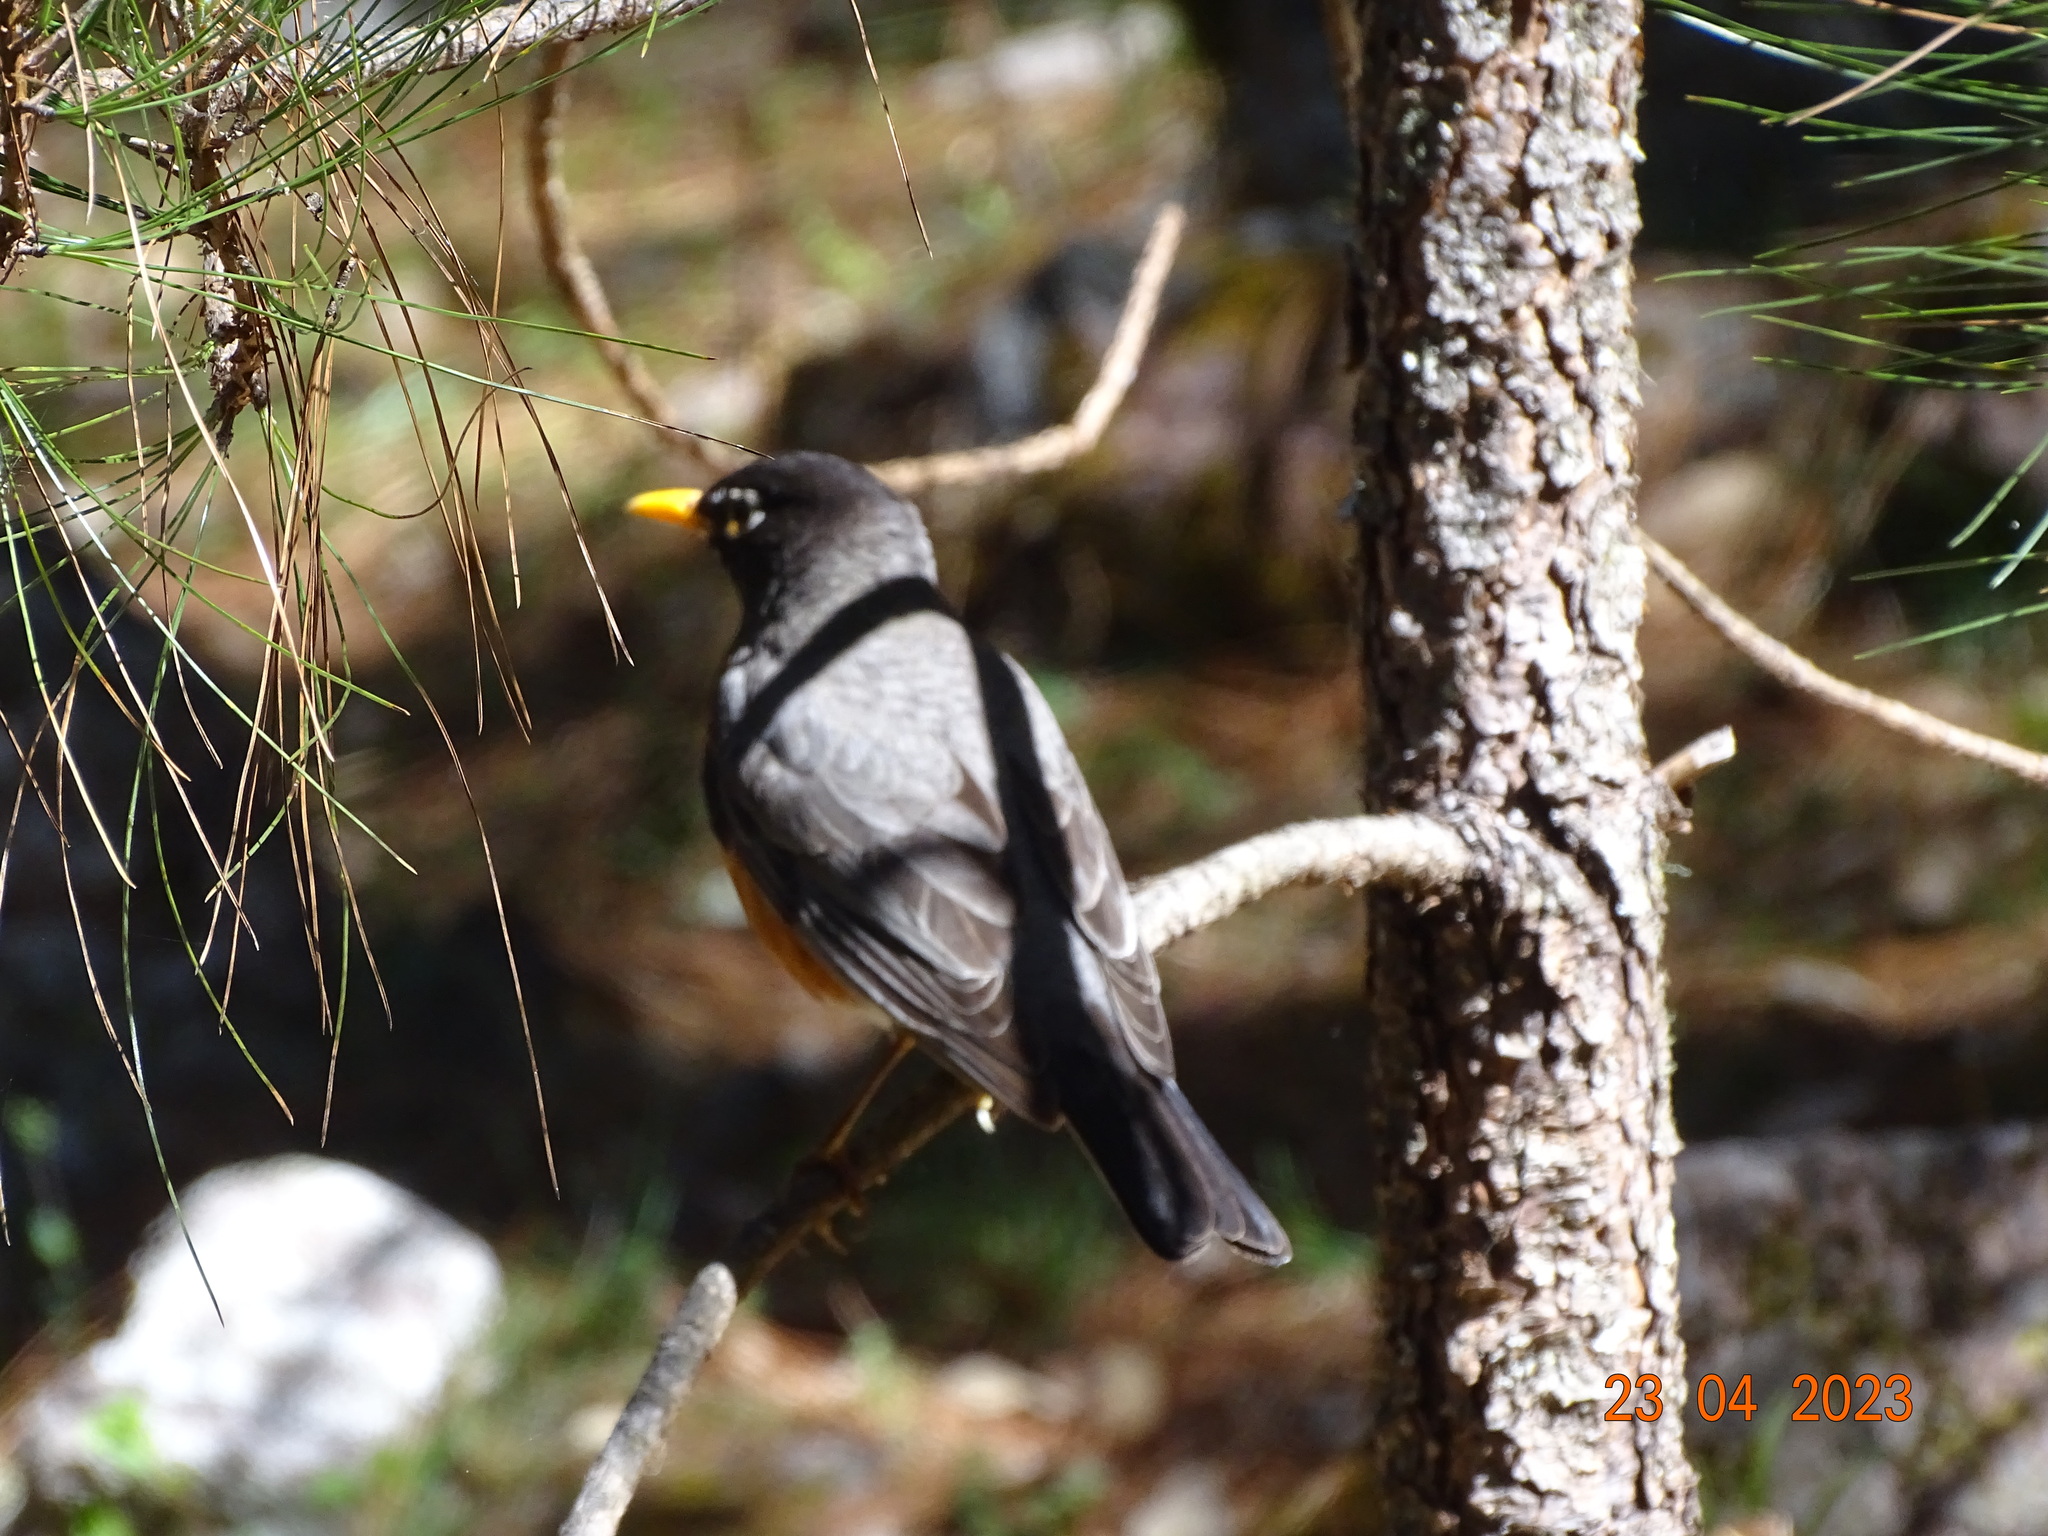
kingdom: Animalia
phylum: Chordata
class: Aves
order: Passeriformes
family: Turdidae
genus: Turdus
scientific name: Turdus migratorius
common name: American robin
